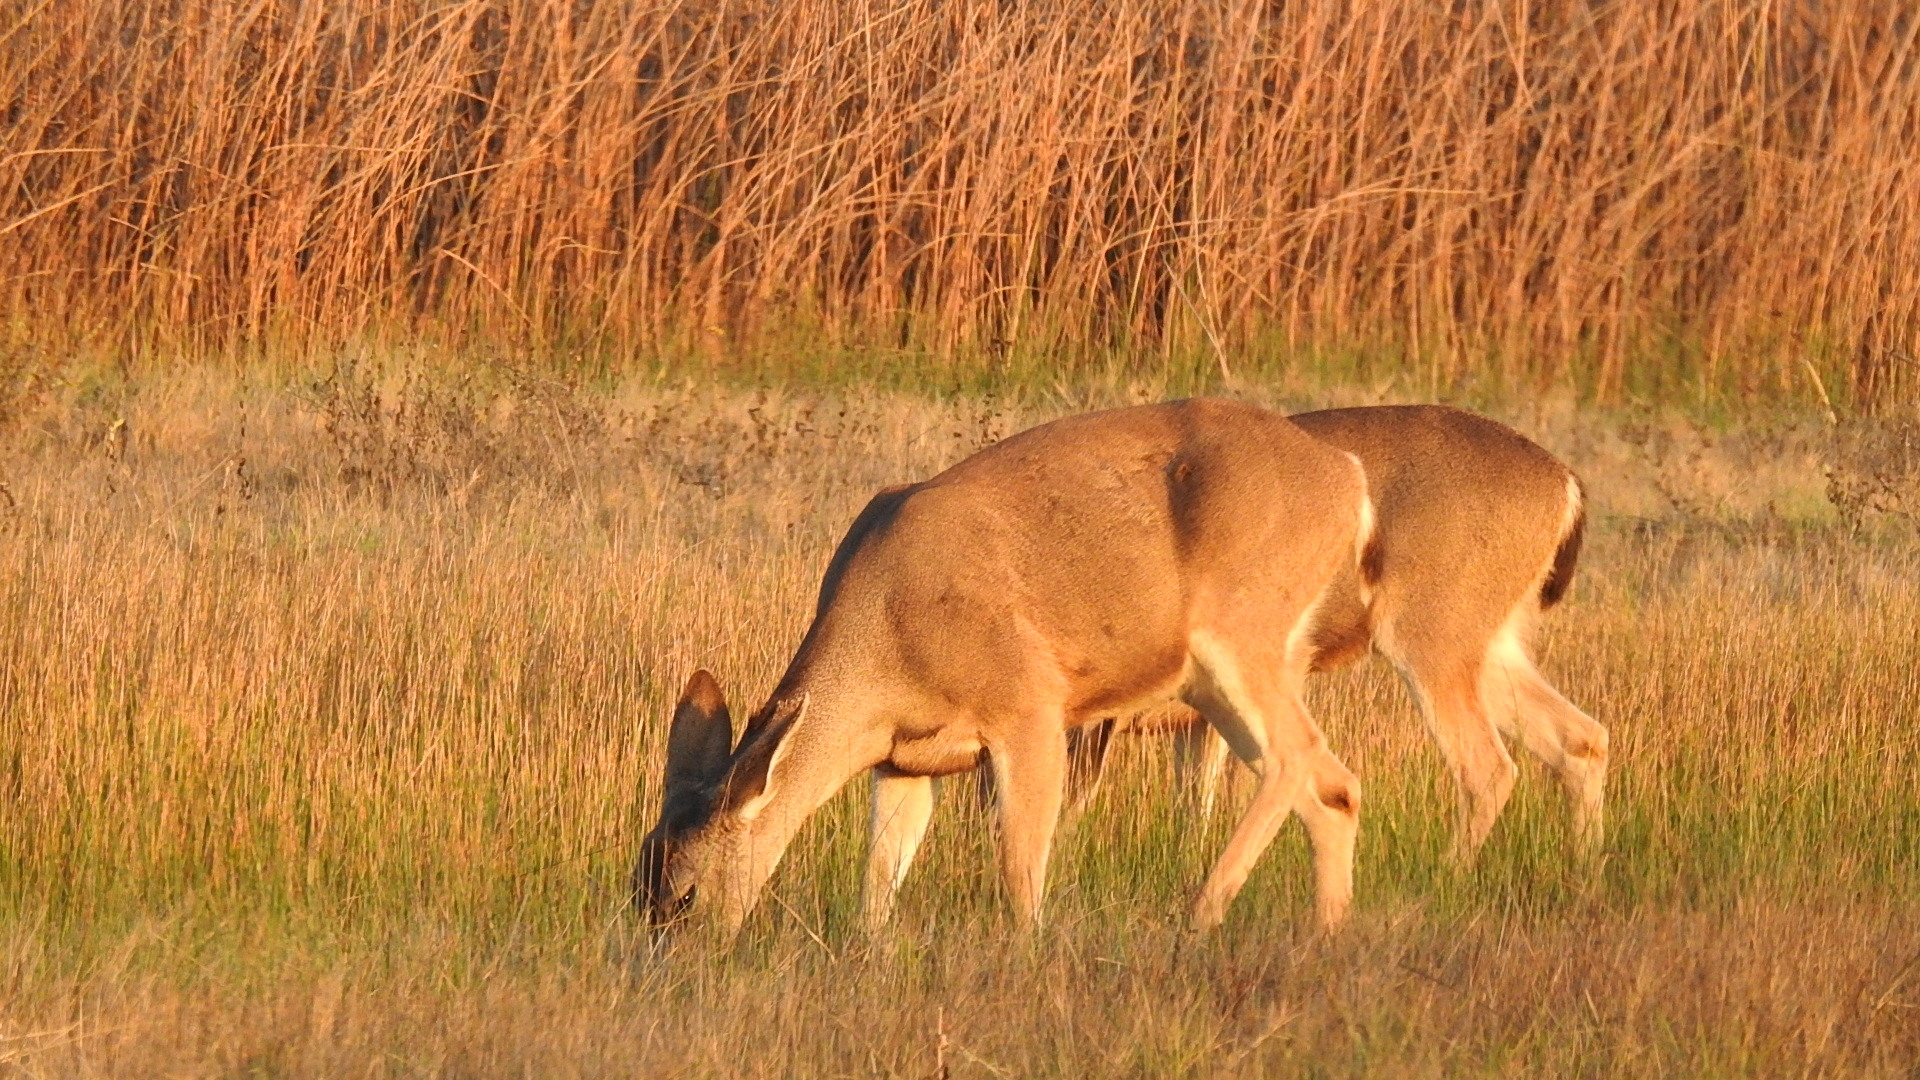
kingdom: Animalia
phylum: Chordata
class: Mammalia
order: Artiodactyla
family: Cervidae
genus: Odocoileus
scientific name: Odocoileus hemionus
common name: Mule deer
